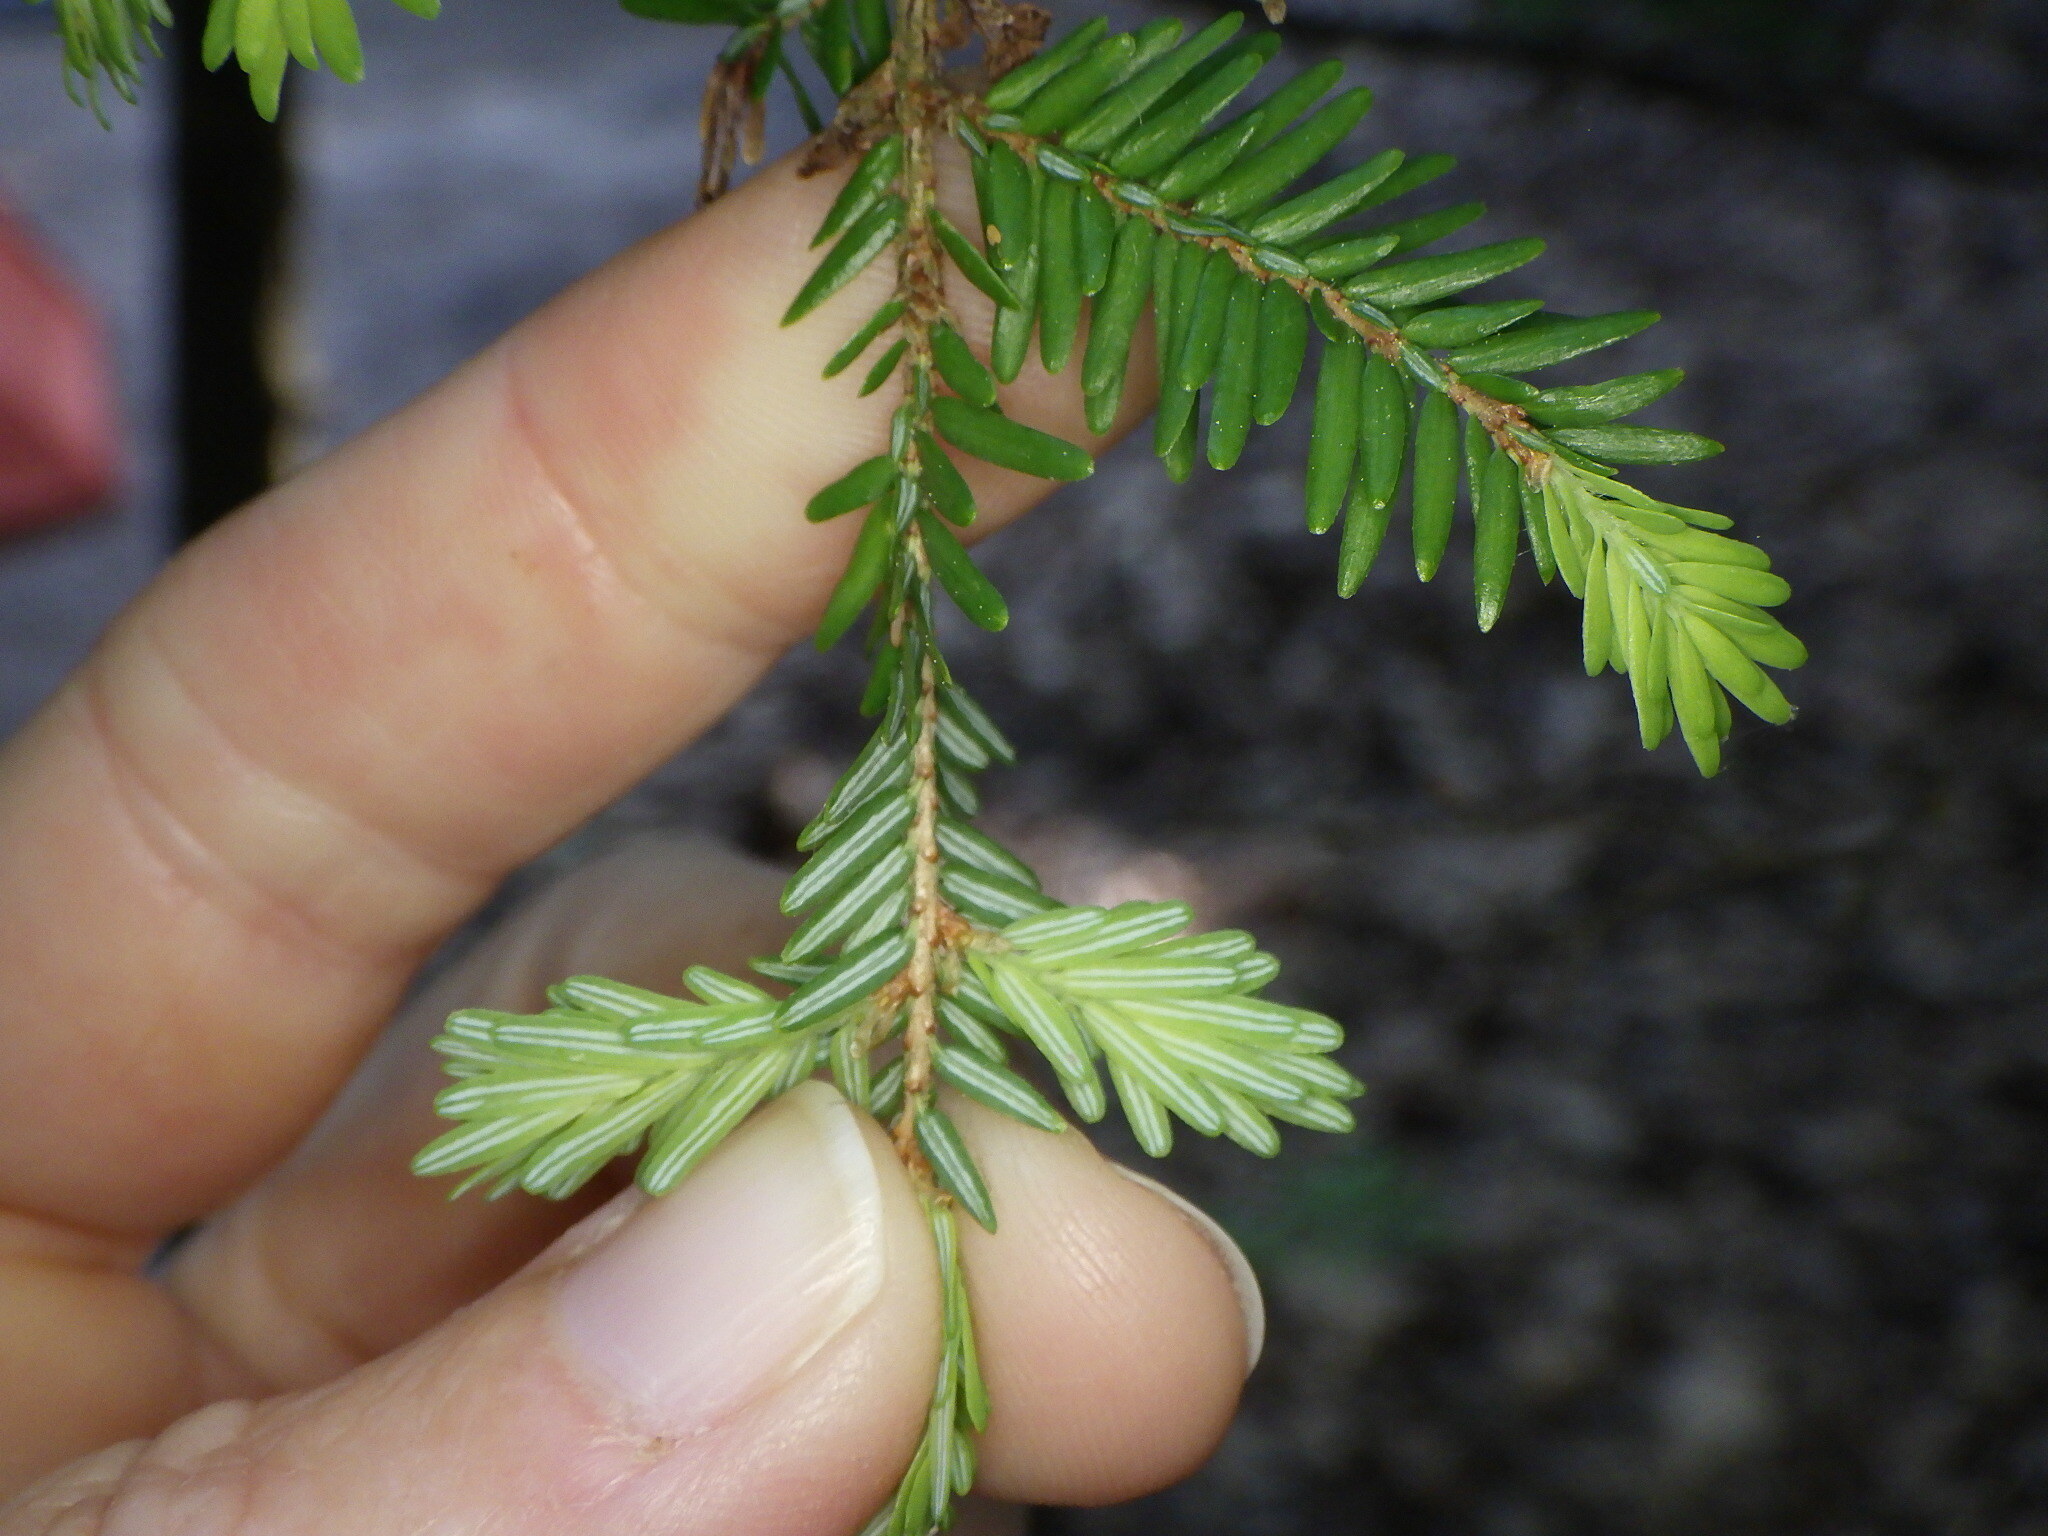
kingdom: Plantae
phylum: Tracheophyta
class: Pinopsida
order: Pinales
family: Pinaceae
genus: Tsuga
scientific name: Tsuga canadensis
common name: Eastern hemlock
